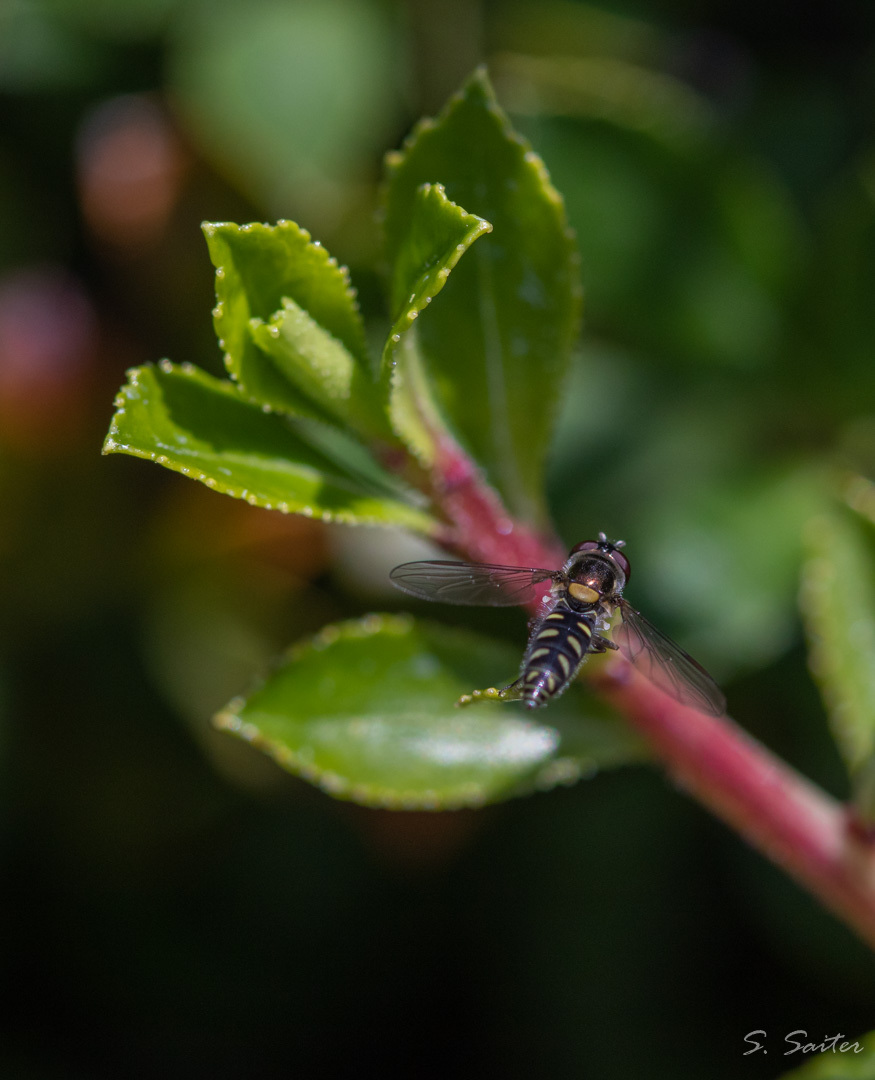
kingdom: Animalia
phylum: Arthropoda
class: Insecta
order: Diptera
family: Syrphidae
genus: Allograpta
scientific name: Allograpta hortensis
